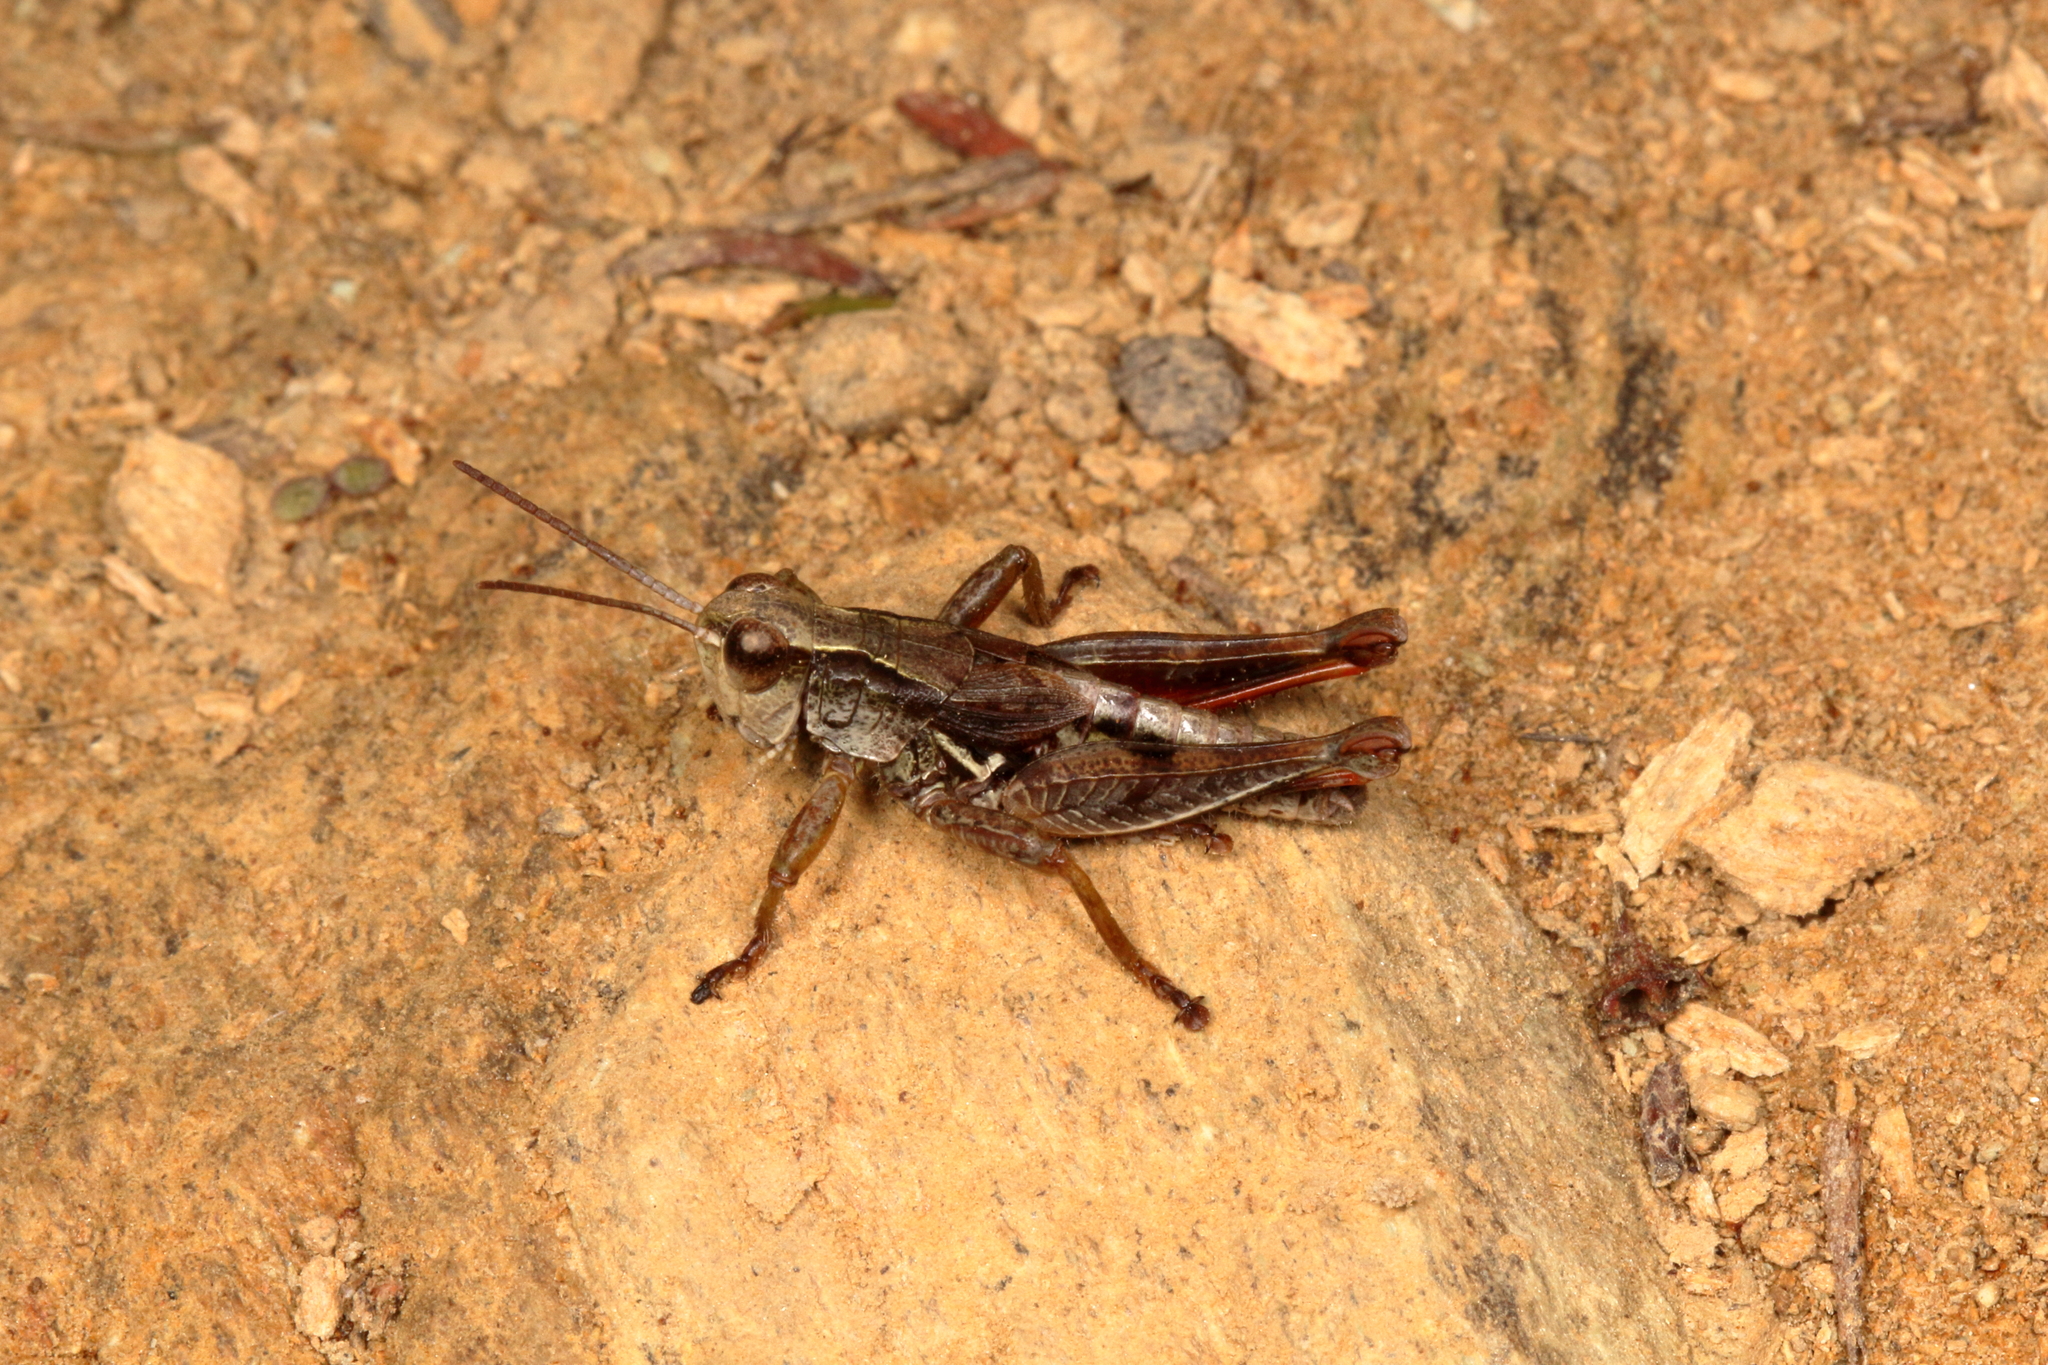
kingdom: Animalia
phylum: Arthropoda
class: Insecta
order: Orthoptera
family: Acrididae
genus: Phaulacridium
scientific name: Phaulacridium marginale
